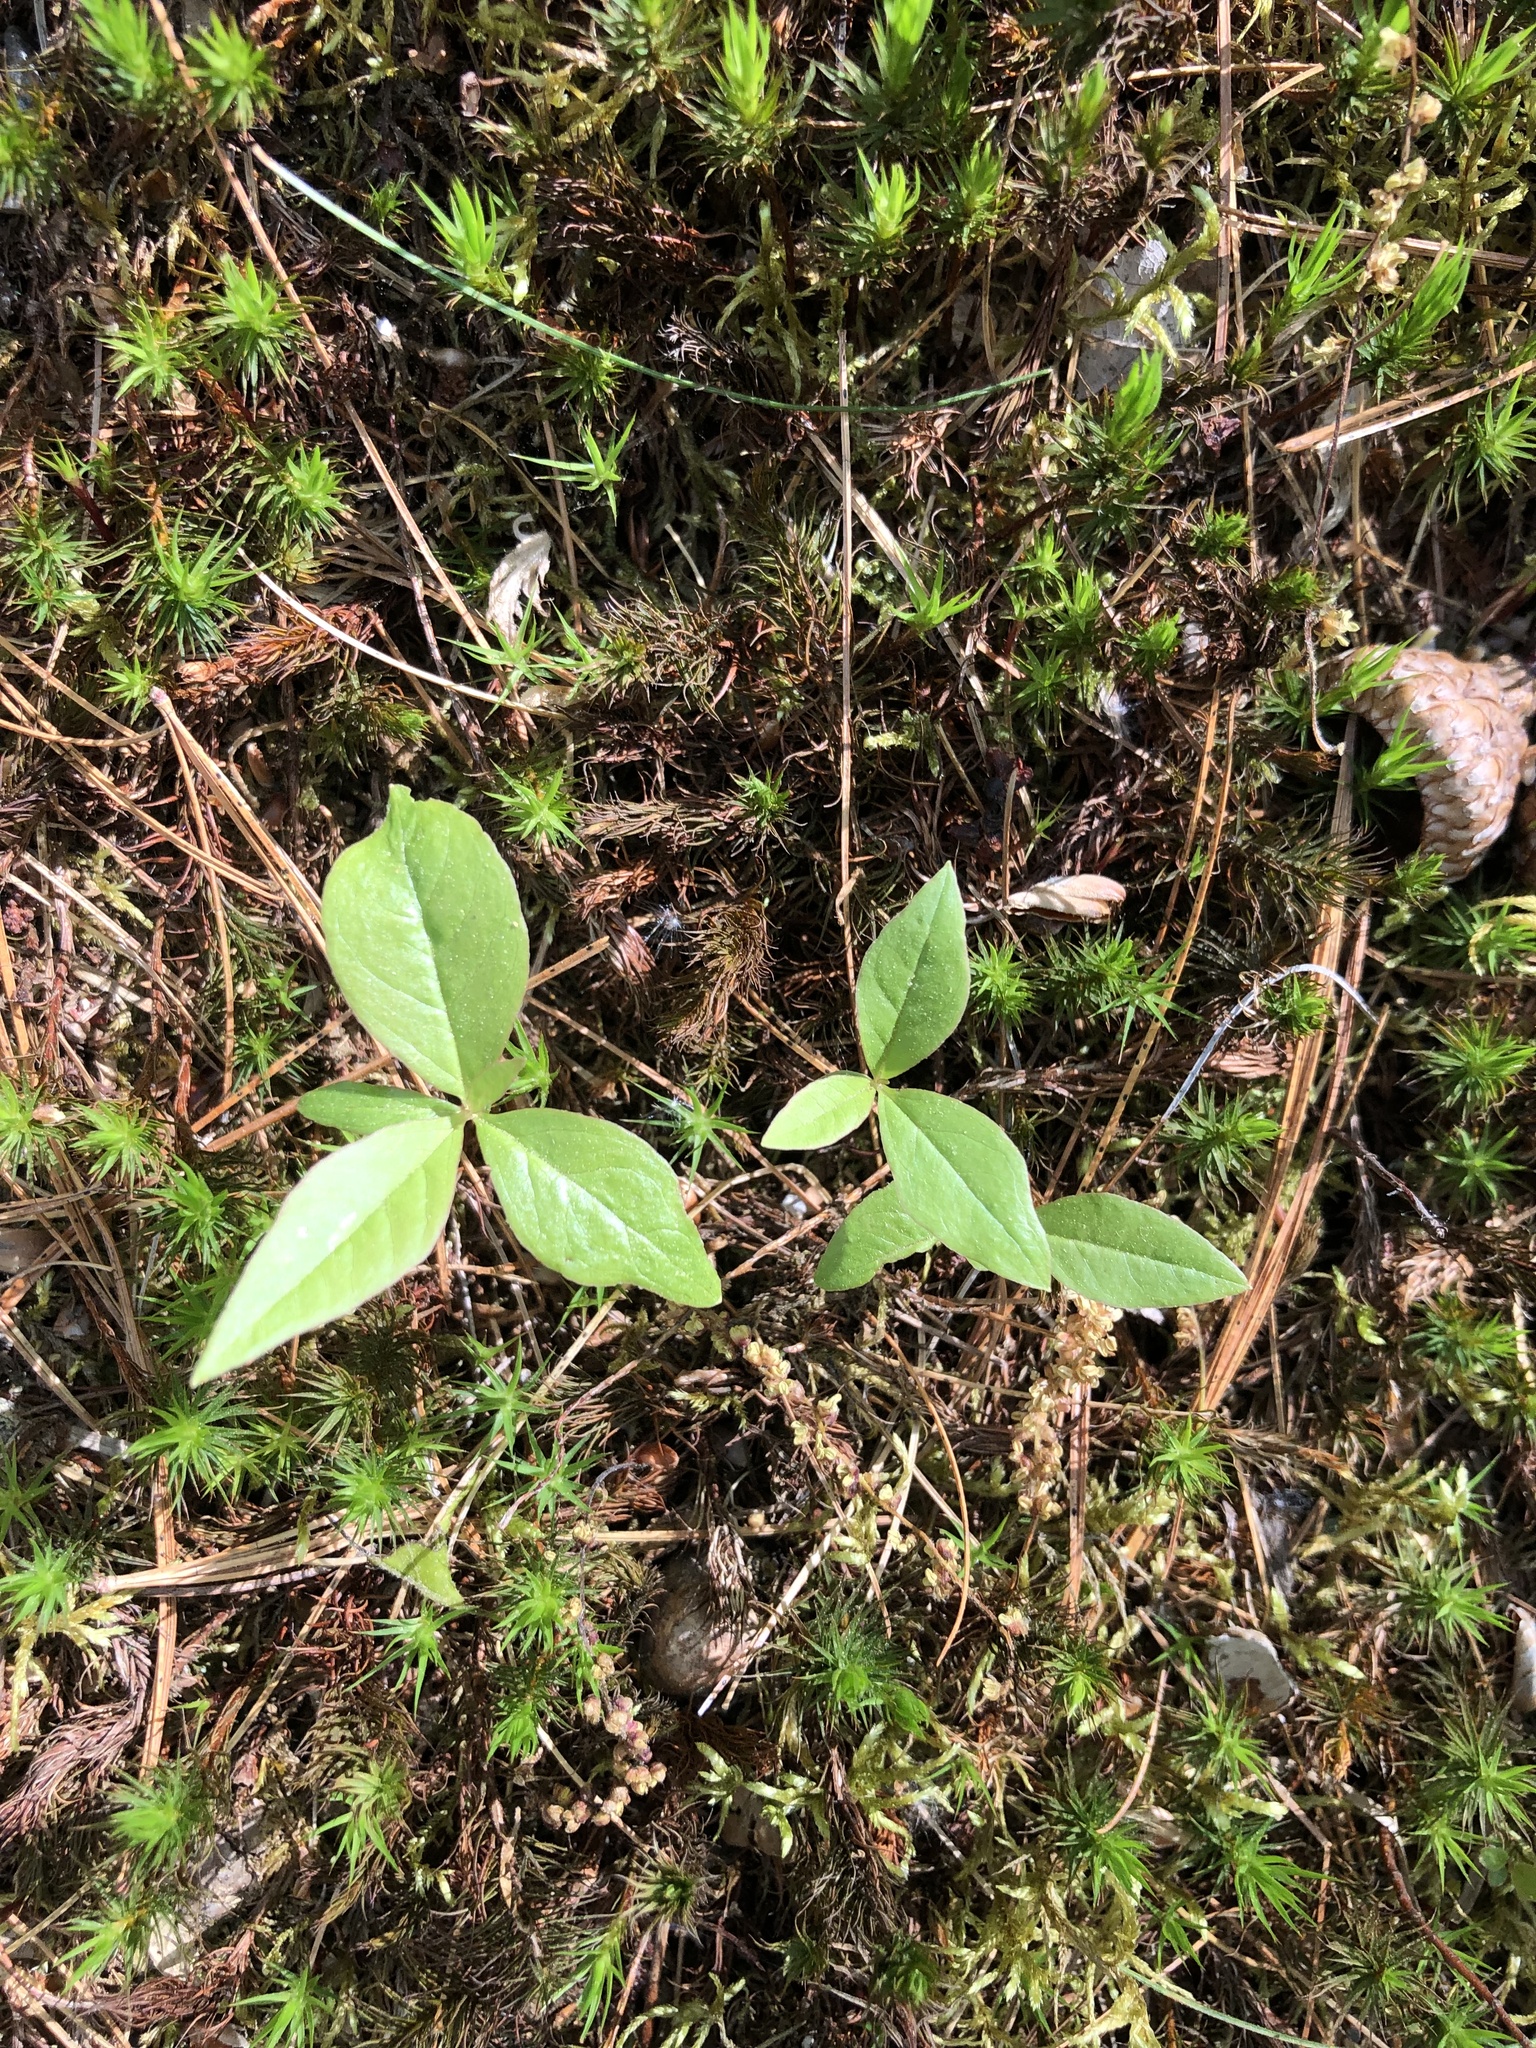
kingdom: Plantae
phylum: Tracheophyta
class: Magnoliopsida
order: Ericales
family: Primulaceae
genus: Lysimachia
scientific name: Lysimachia borealis
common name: American starflower
